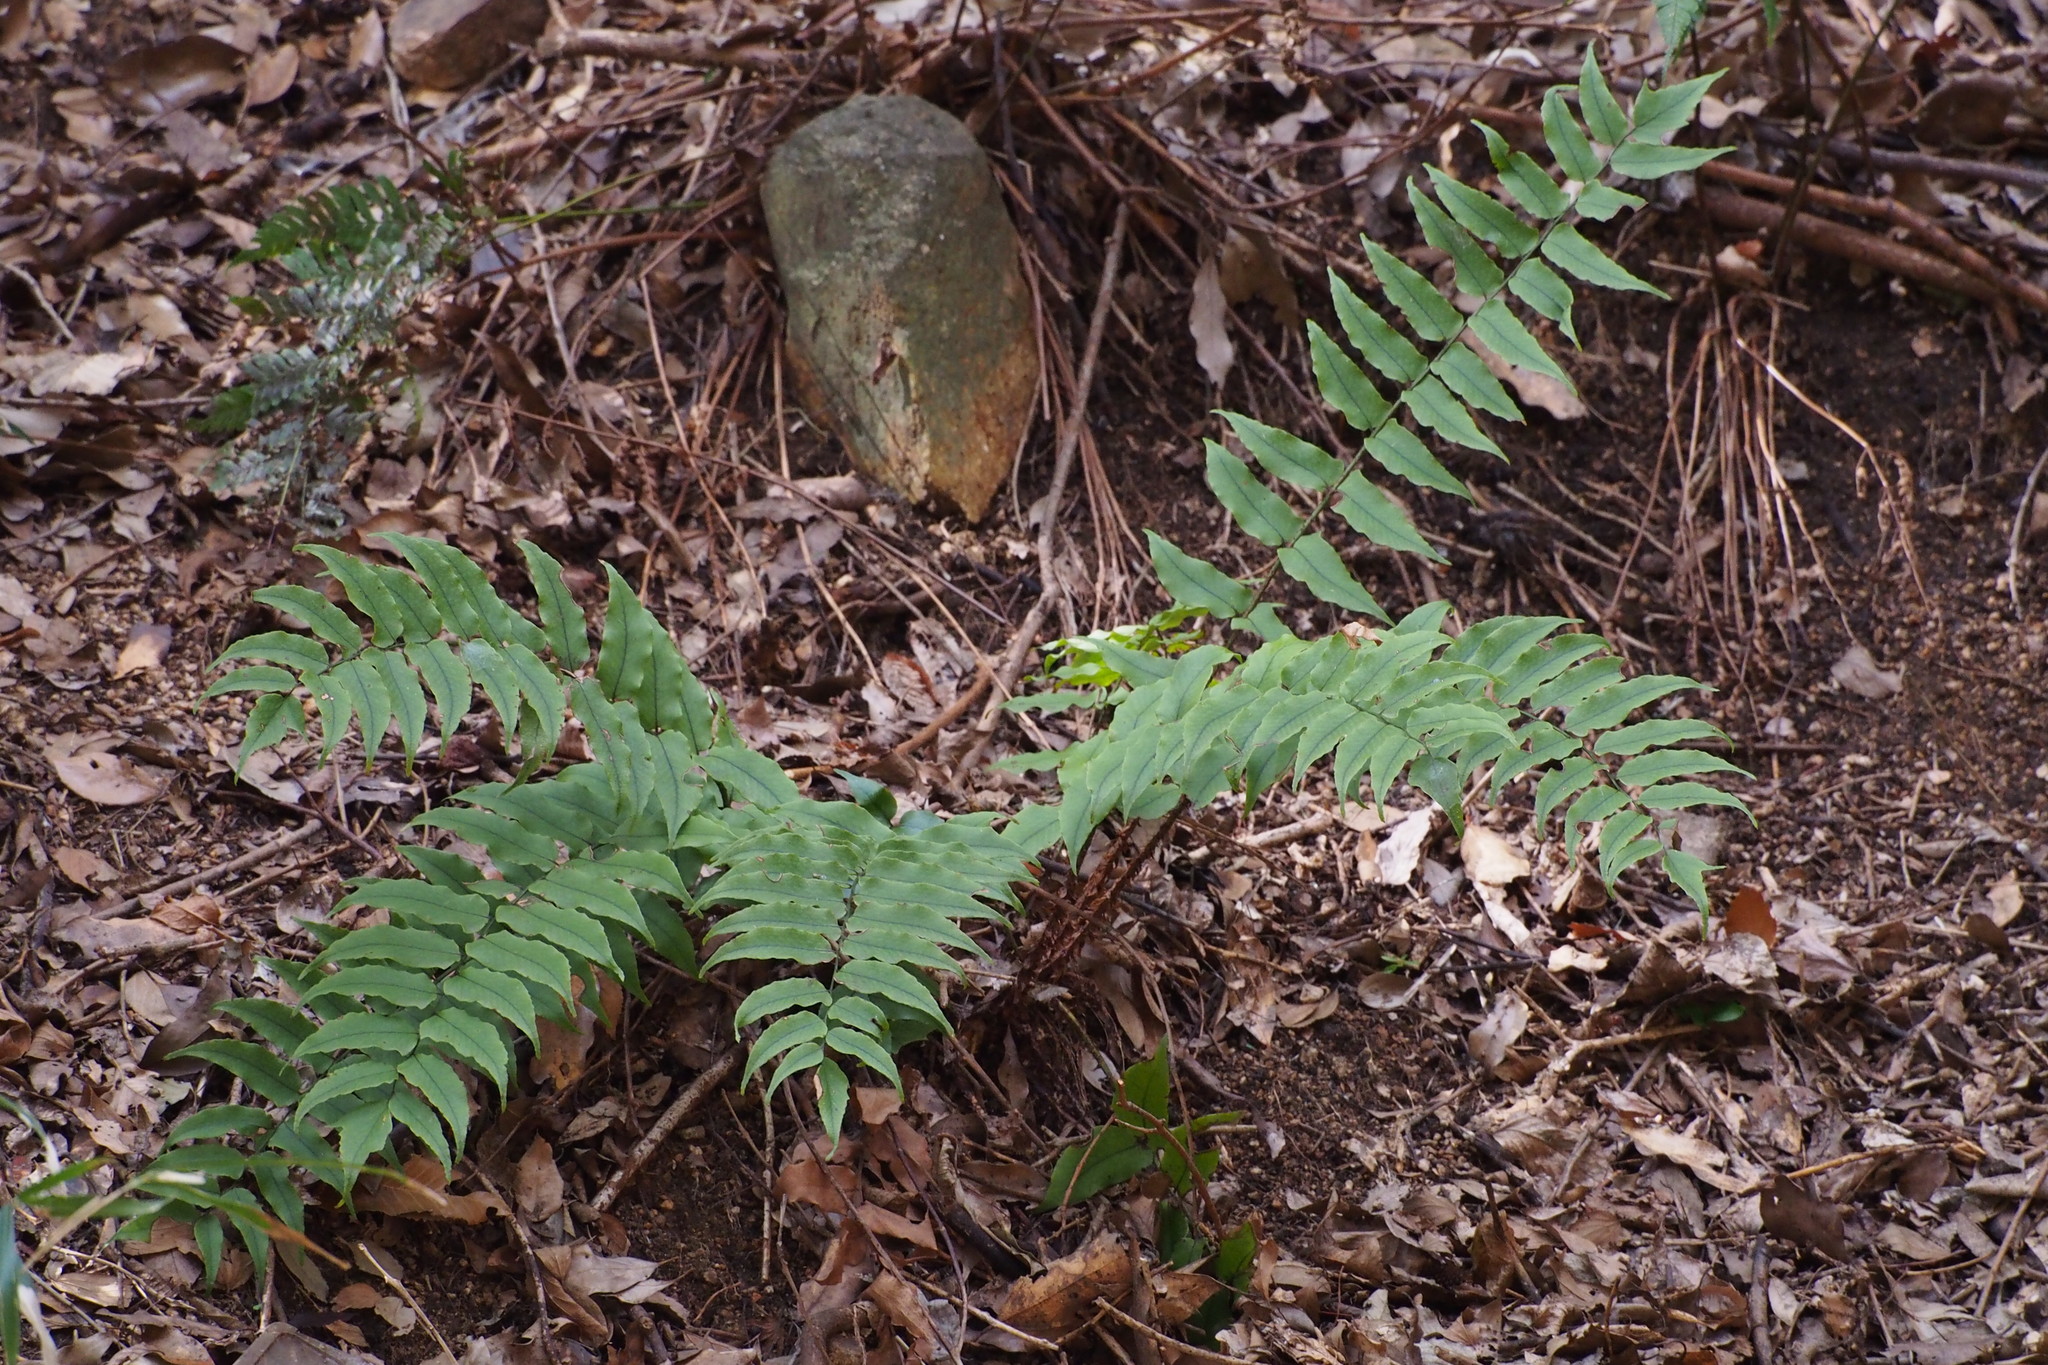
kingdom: Plantae
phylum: Tracheophyta
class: Polypodiopsida
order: Polypodiales
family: Dryopteridaceae
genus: Cyrtomium
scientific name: Cyrtomium fortunei
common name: Asian netvein hollyfern
